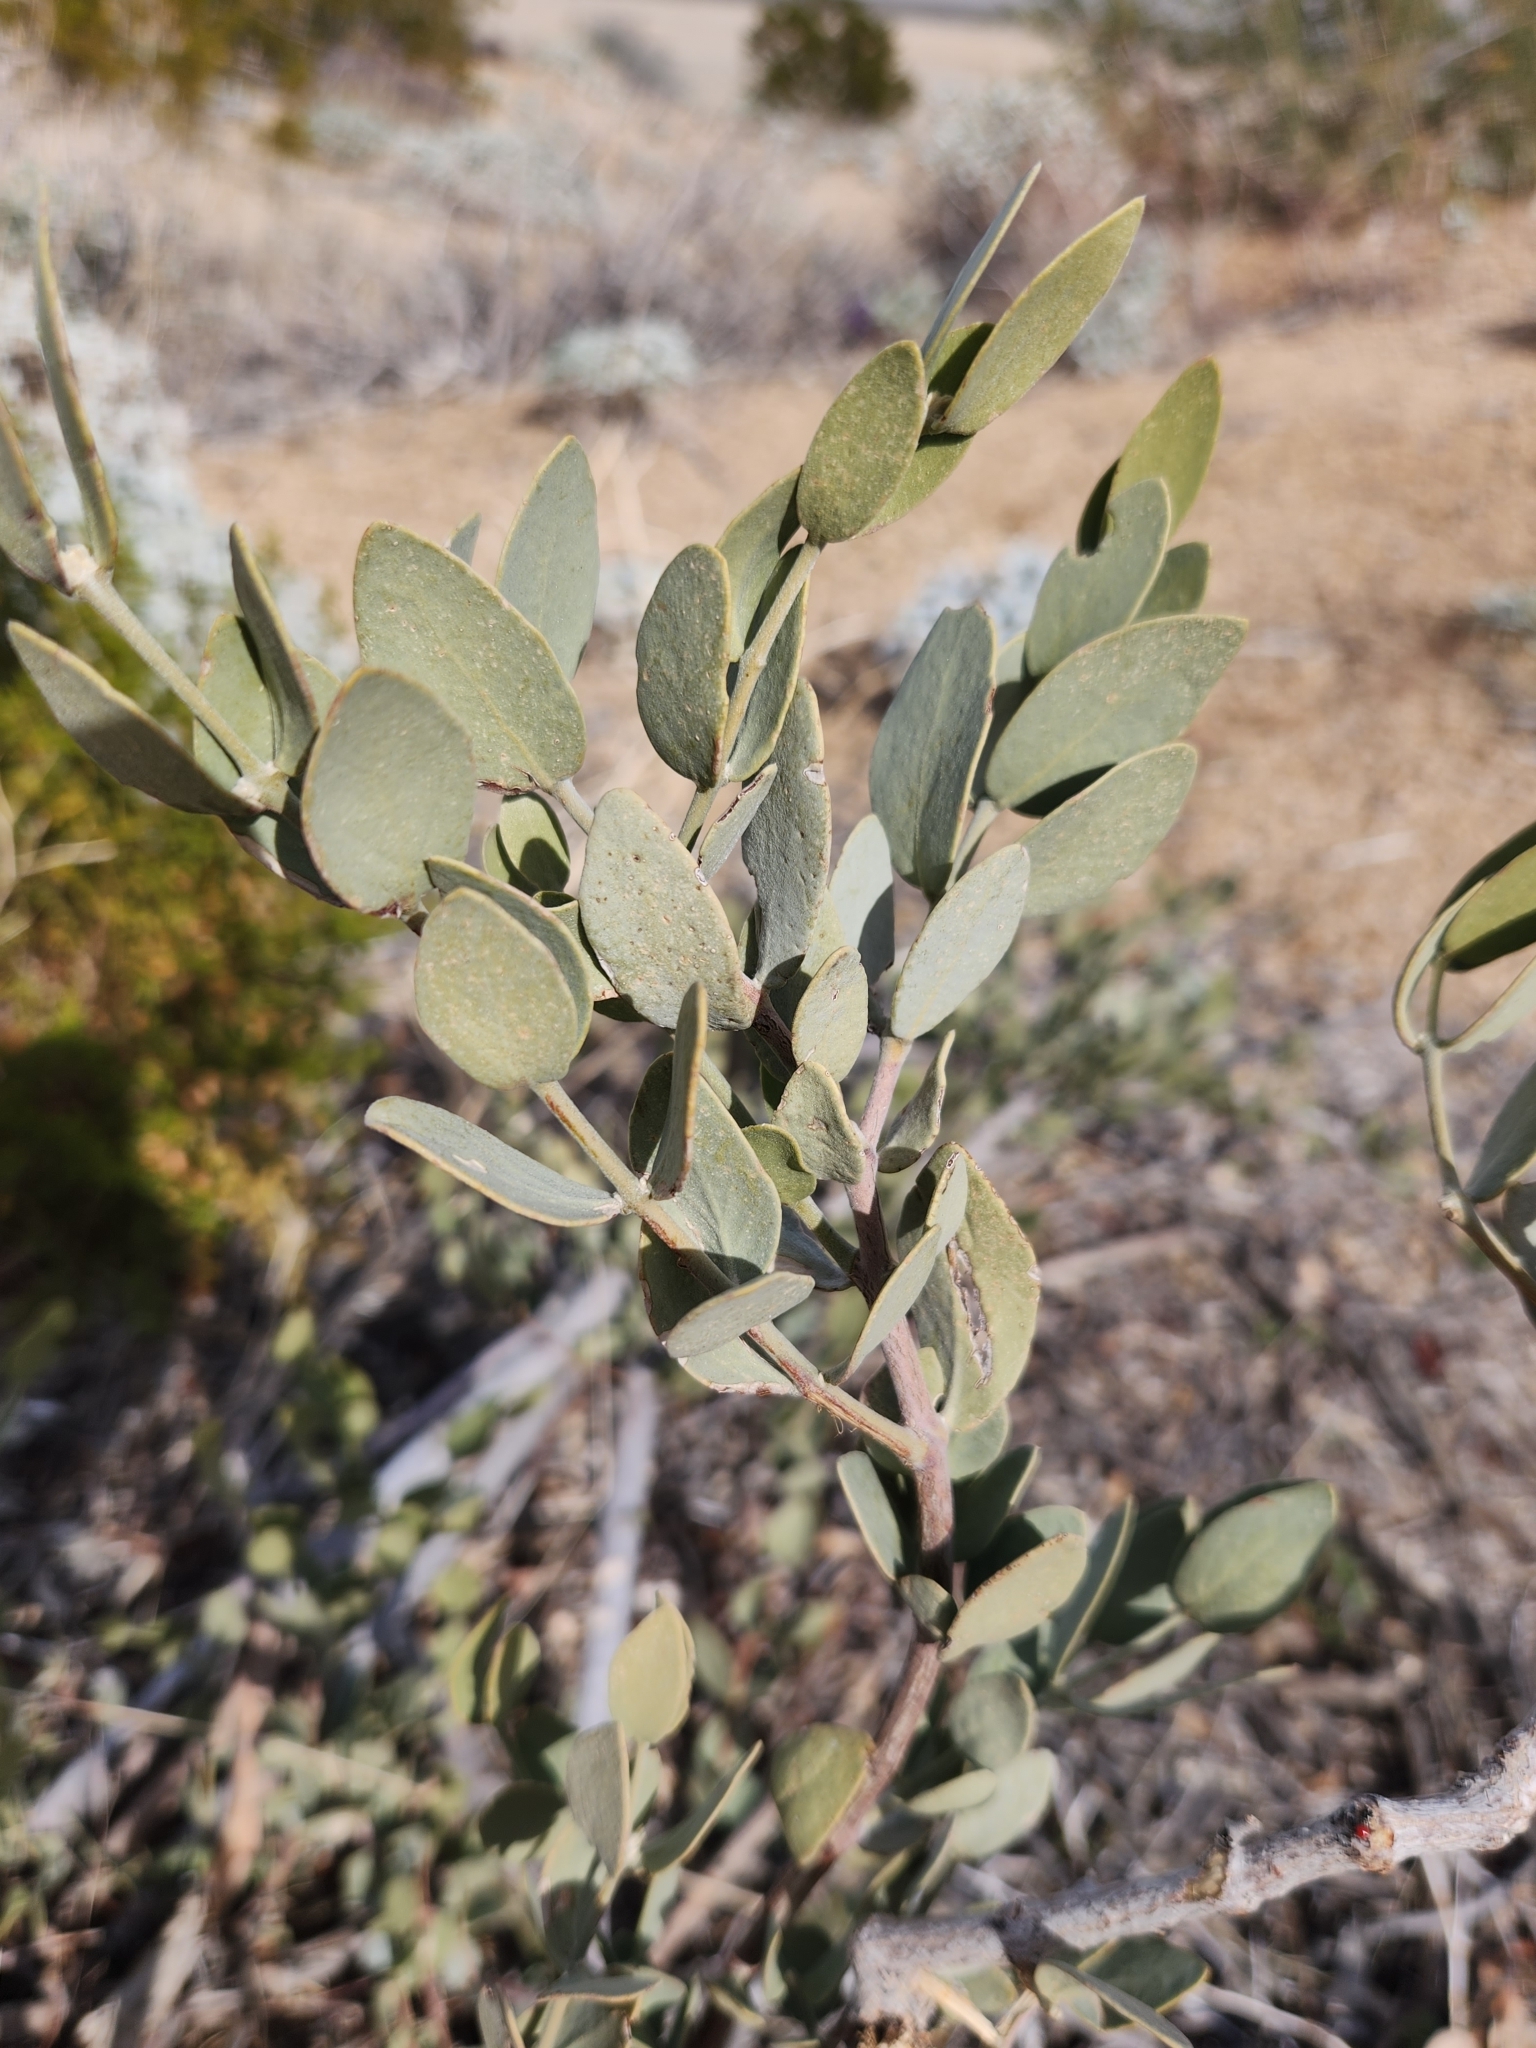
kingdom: Plantae
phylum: Tracheophyta
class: Magnoliopsida
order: Caryophyllales
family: Simmondsiaceae
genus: Simmondsia
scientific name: Simmondsia chinensis
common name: Jojoba
